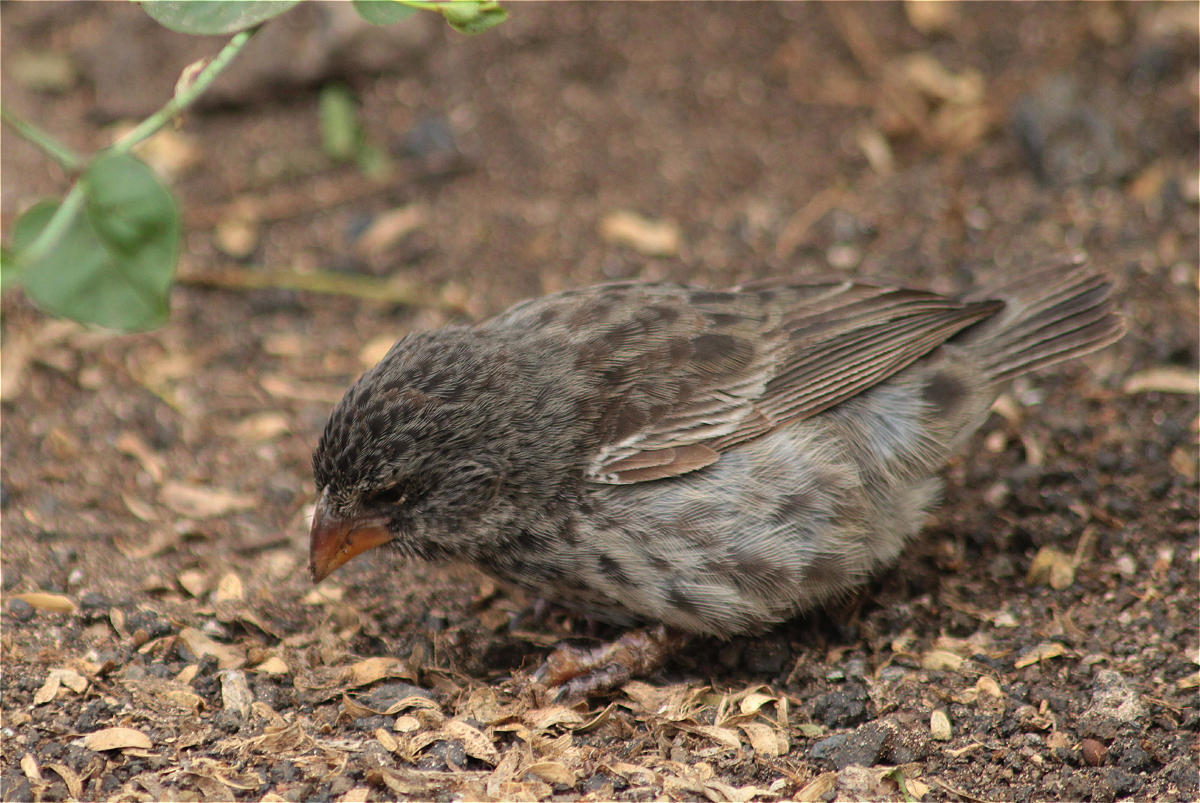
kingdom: Animalia
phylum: Chordata
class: Aves
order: Passeriformes
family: Thraupidae
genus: Geospiza
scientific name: Geospiza fuliginosa
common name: Small ground finch
